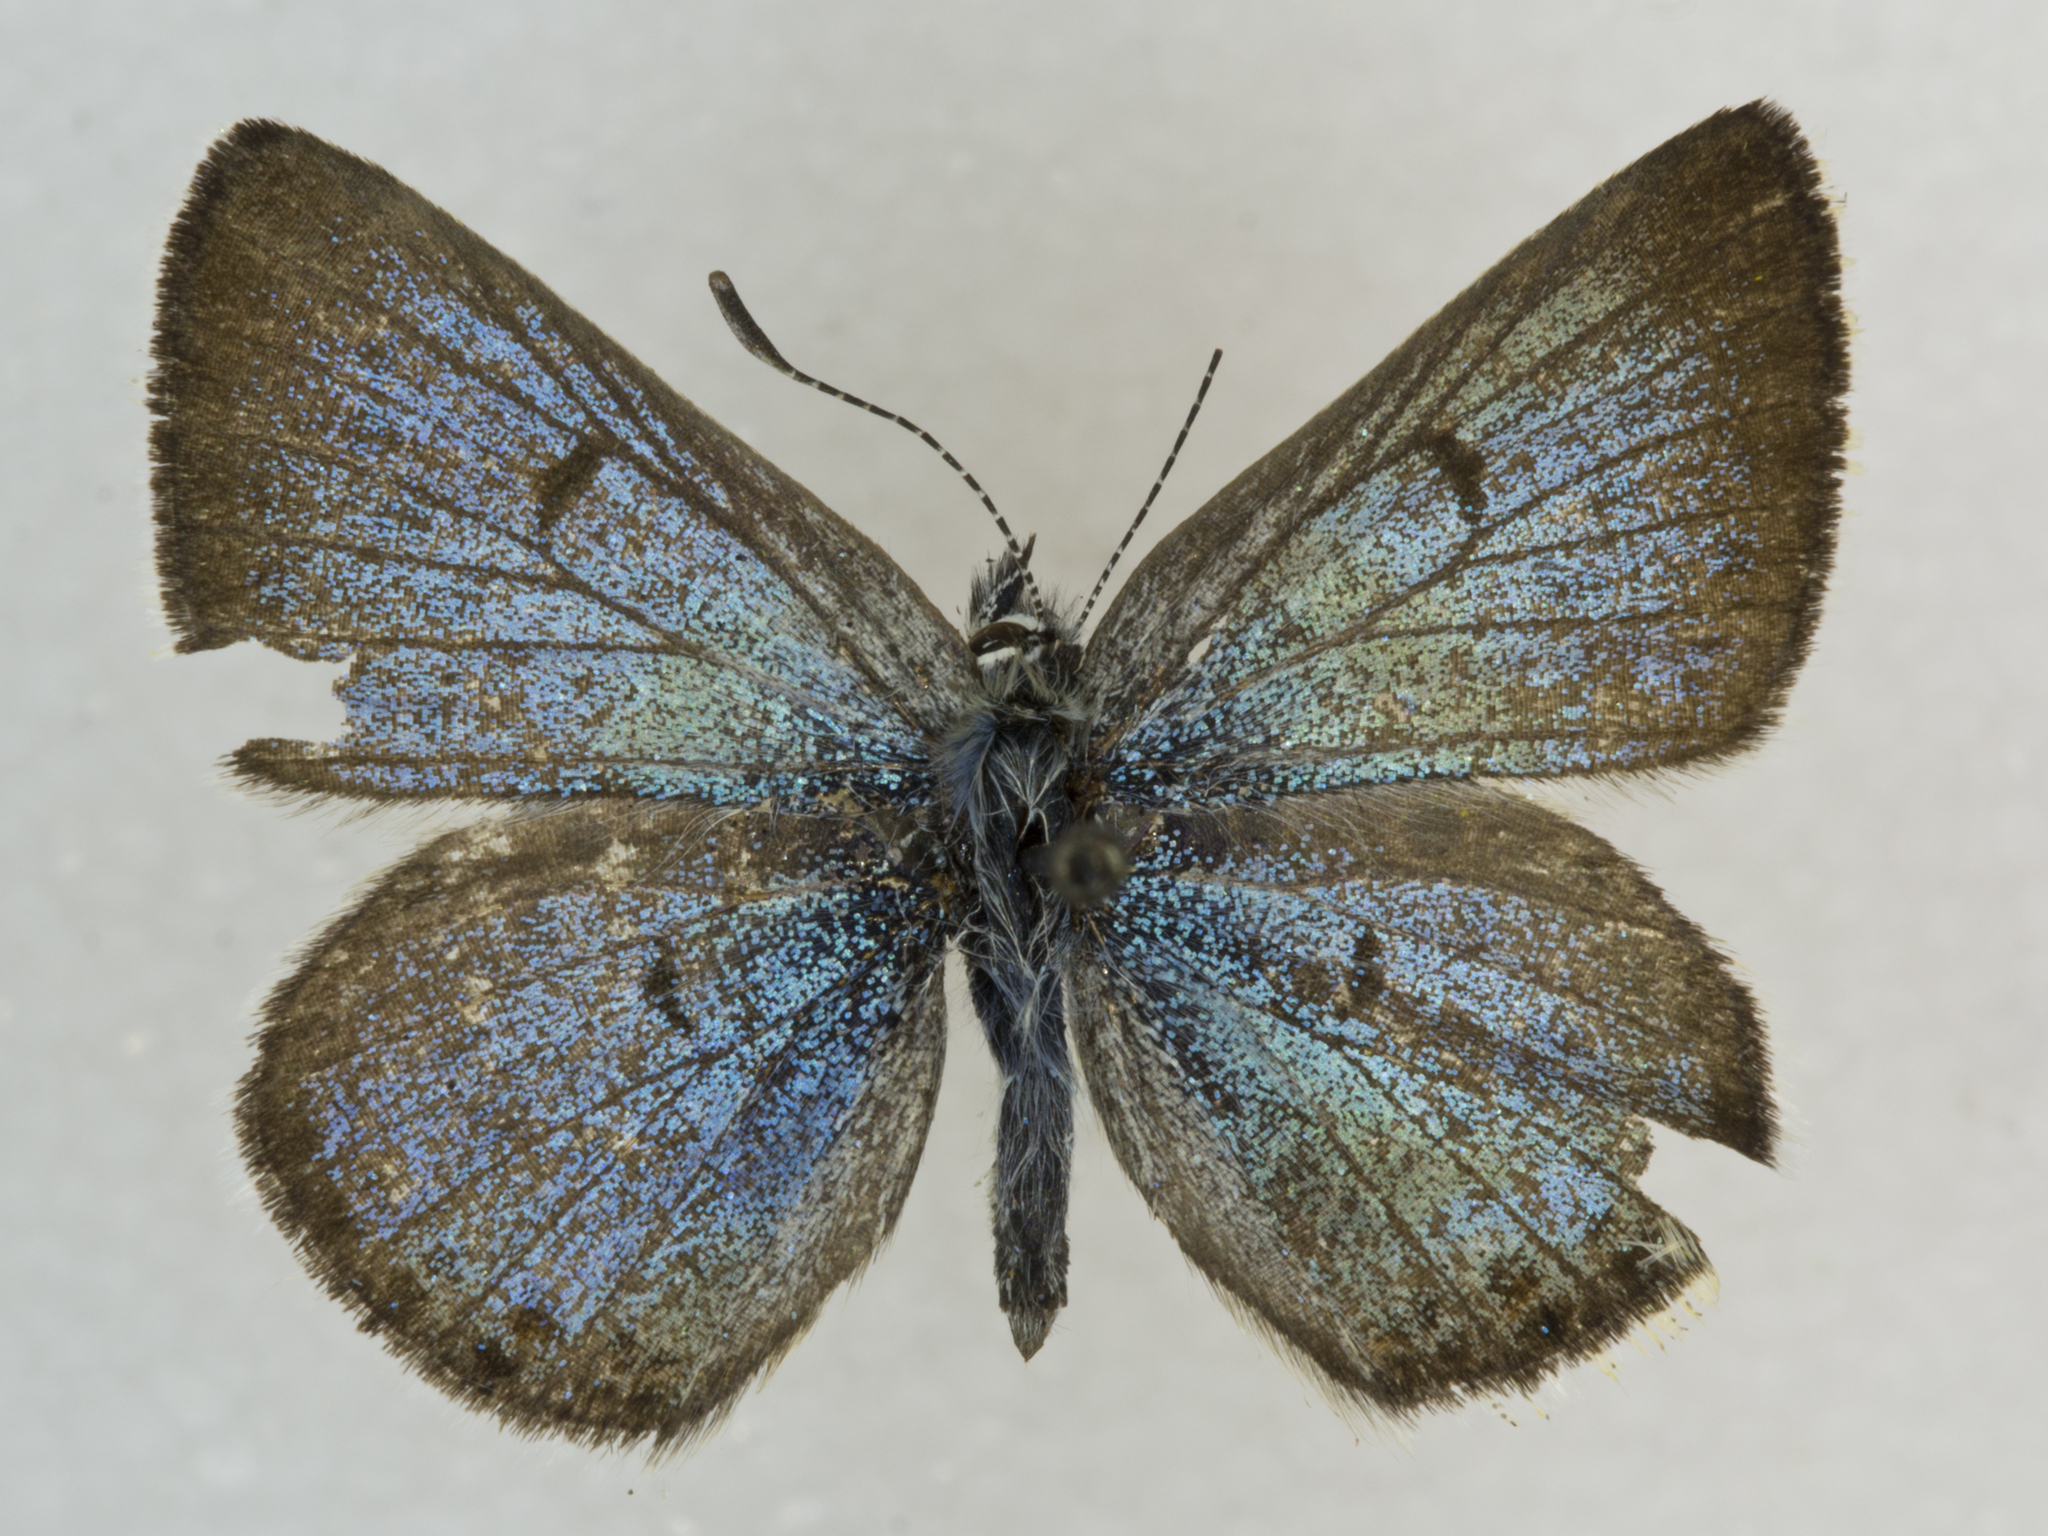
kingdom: Animalia
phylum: Arthropoda
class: Insecta
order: Lepidoptera
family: Lycaenidae
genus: Icaricia
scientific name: Icaricia saepiolus
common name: Greenish blue
